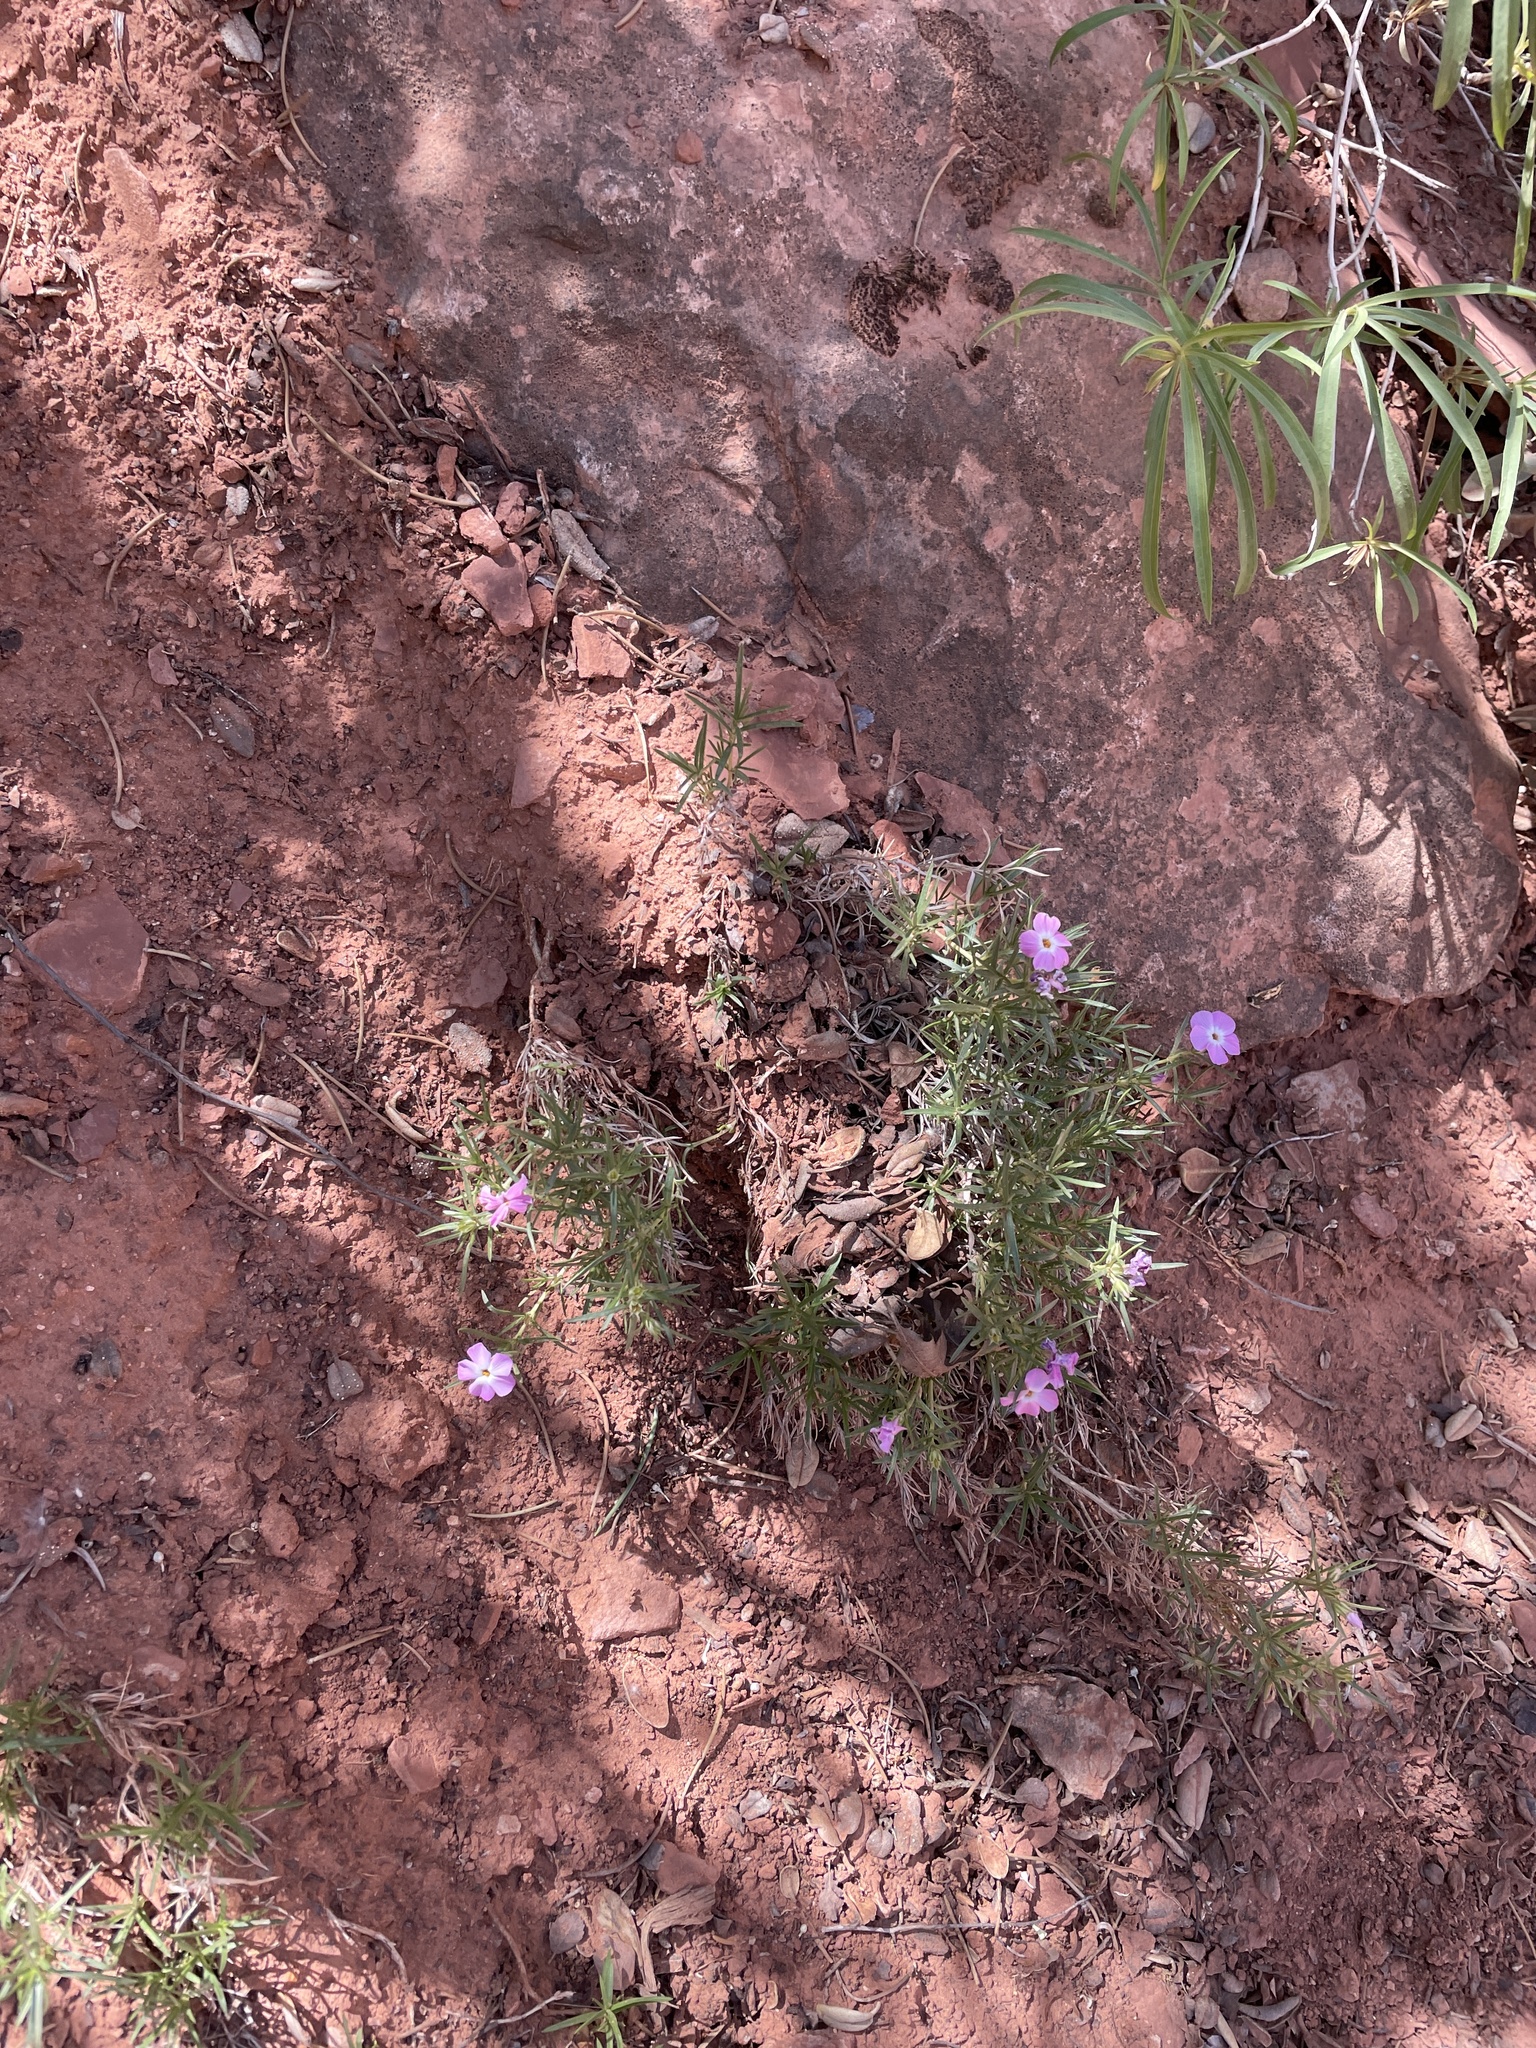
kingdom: Plantae
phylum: Tracheophyta
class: Magnoliopsida
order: Ericales
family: Polemoniaceae
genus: Phlox
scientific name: Phlox austromontana
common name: Desert phlox
